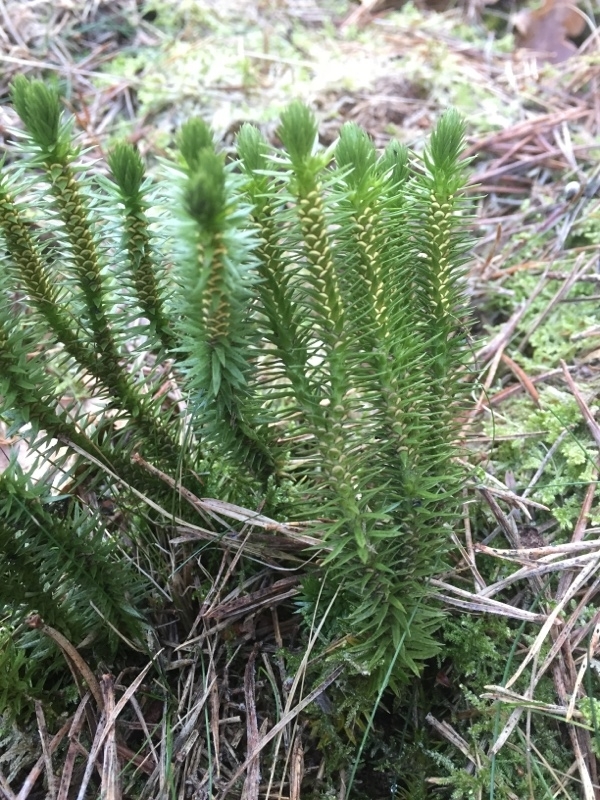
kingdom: Plantae
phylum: Tracheophyta
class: Lycopodiopsida
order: Lycopodiales
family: Lycopodiaceae
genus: Huperzia
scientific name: Huperzia selago
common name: Northern firmoss
